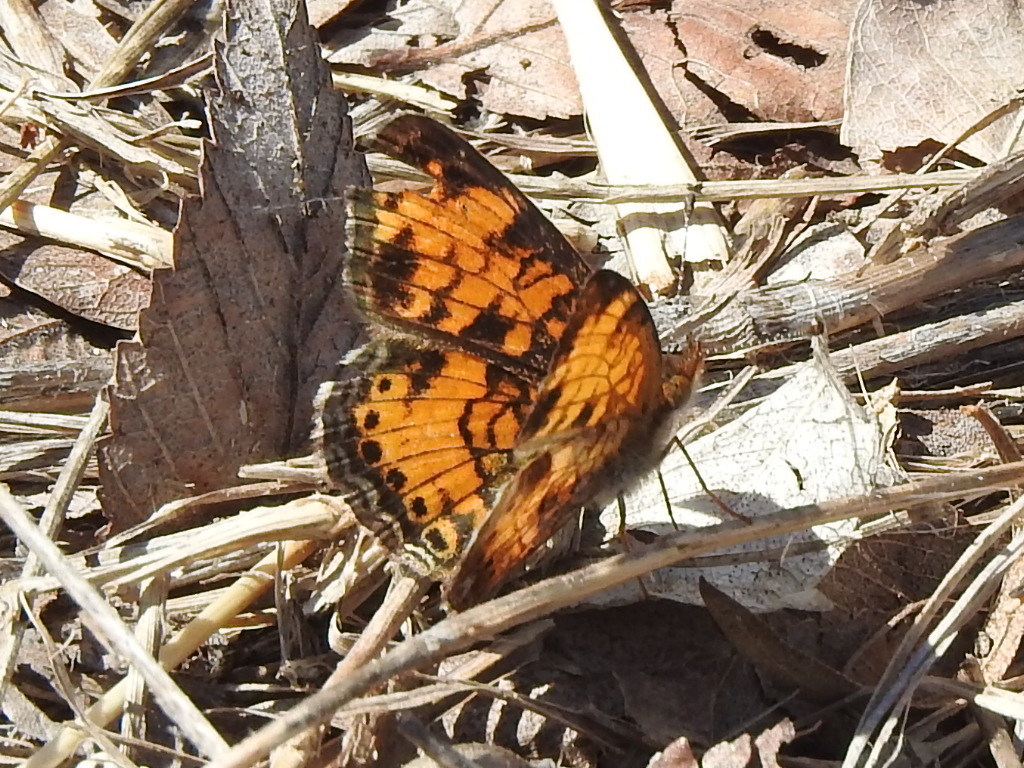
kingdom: Animalia
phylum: Arthropoda
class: Insecta
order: Lepidoptera
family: Nymphalidae
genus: Phyciodes
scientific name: Phyciodes tharos
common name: Pearl crescent
